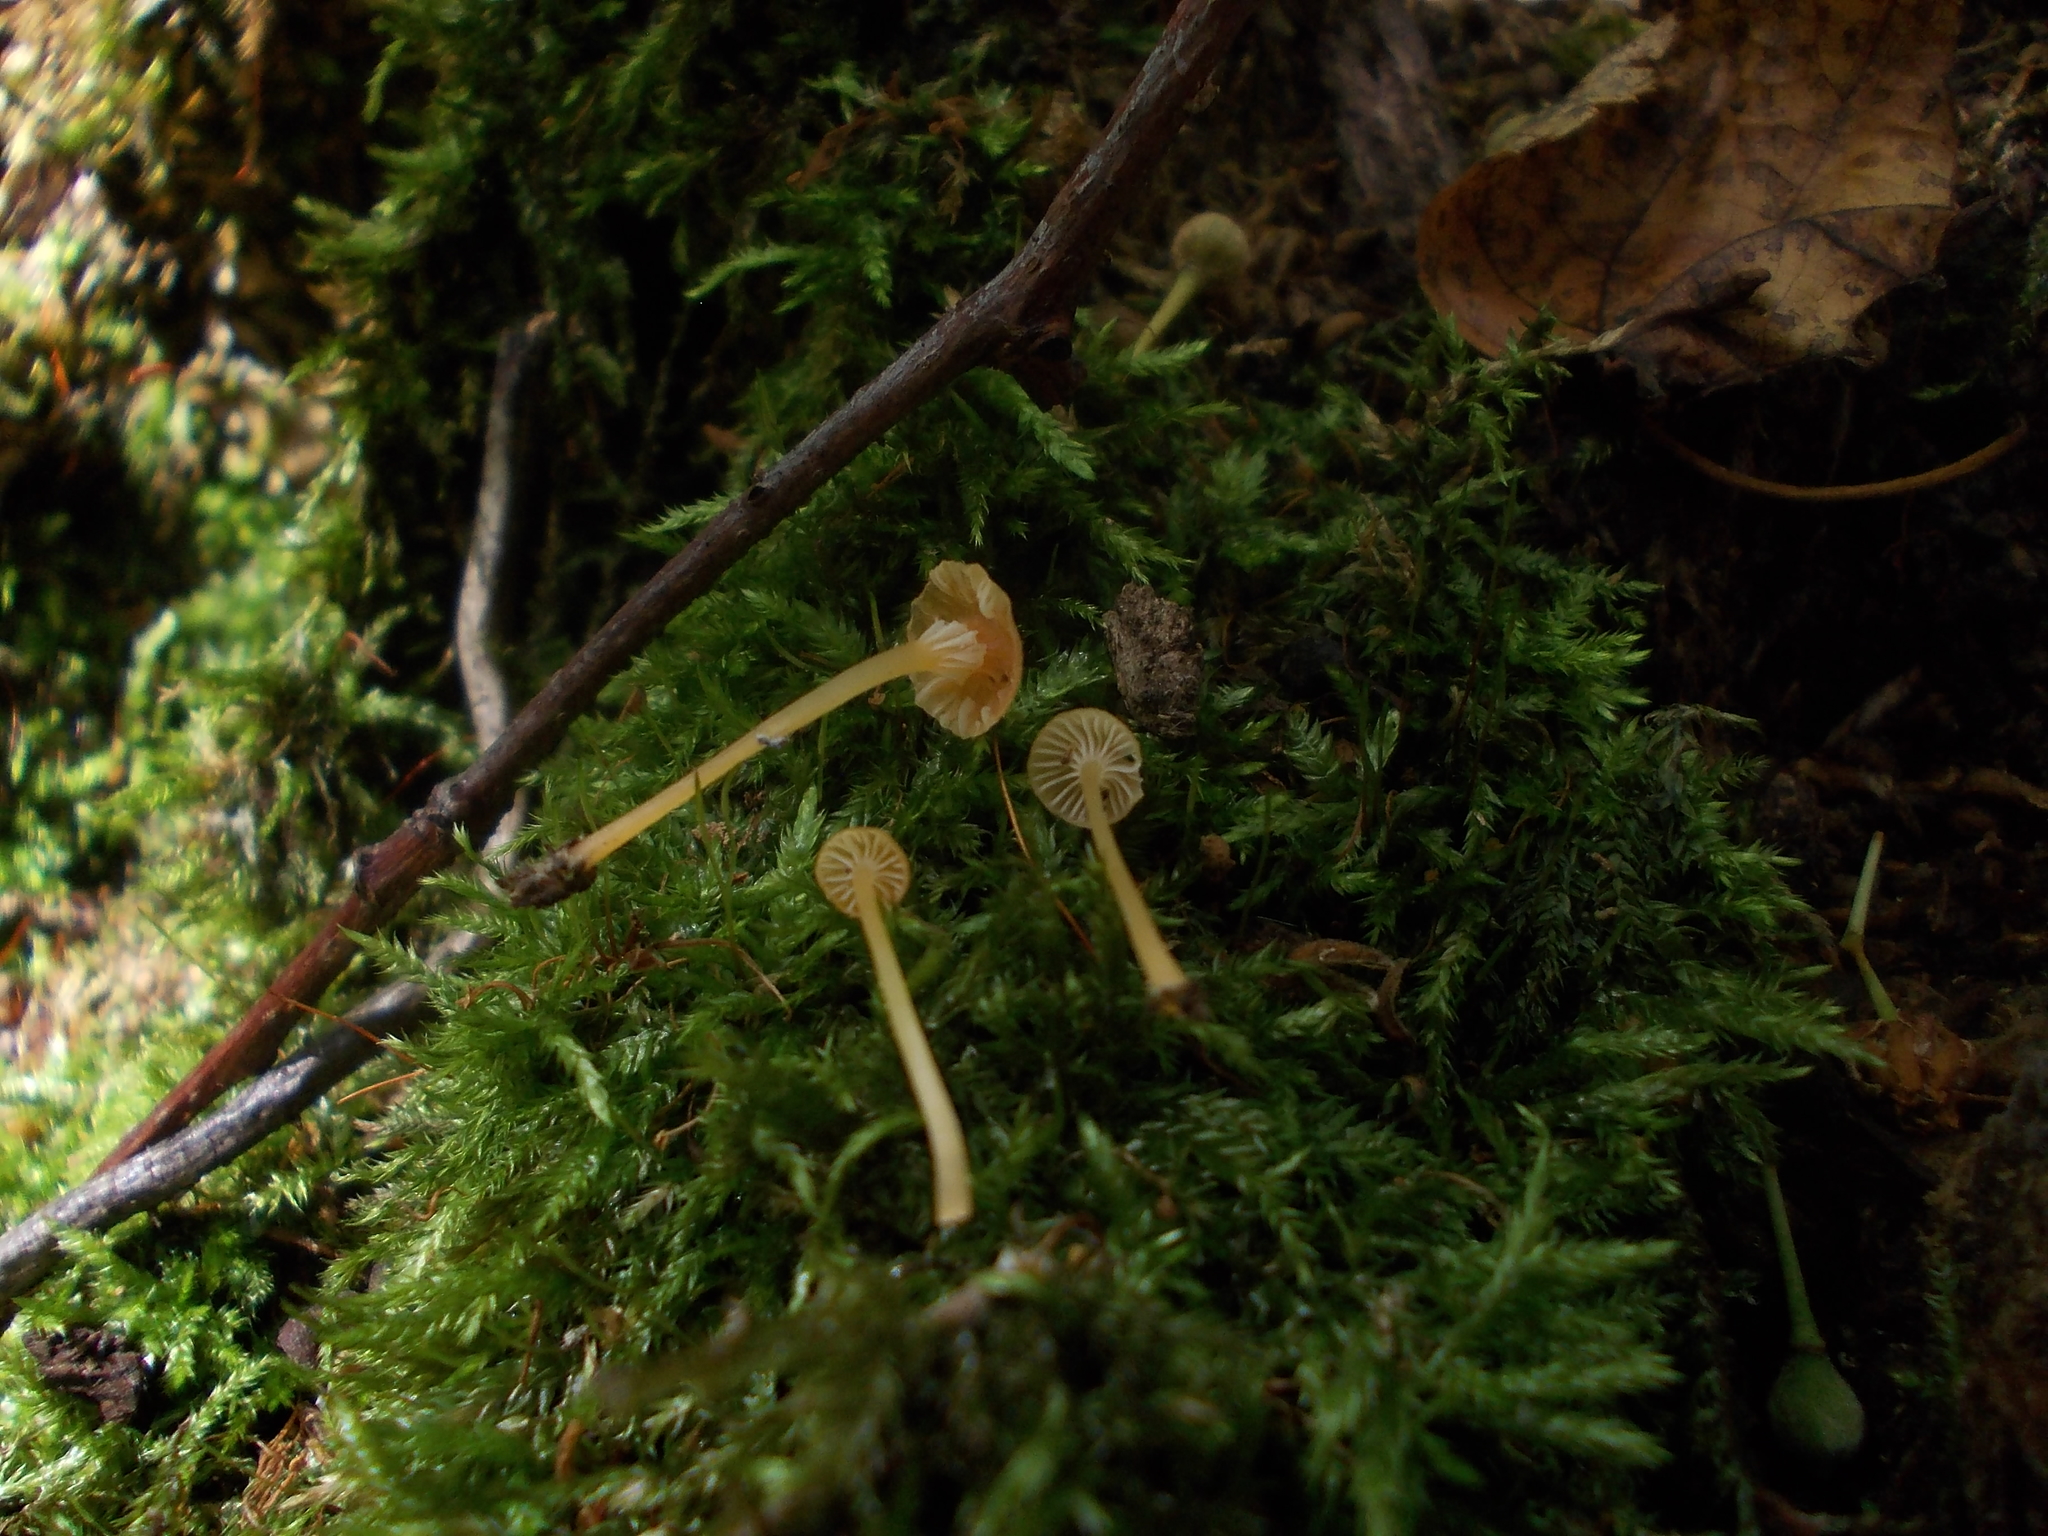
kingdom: Fungi
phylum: Basidiomycota
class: Agaricomycetes
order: Hymenochaetales
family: Rickenellaceae
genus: Rickenella
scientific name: Rickenella fibula
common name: Orange mosscap
